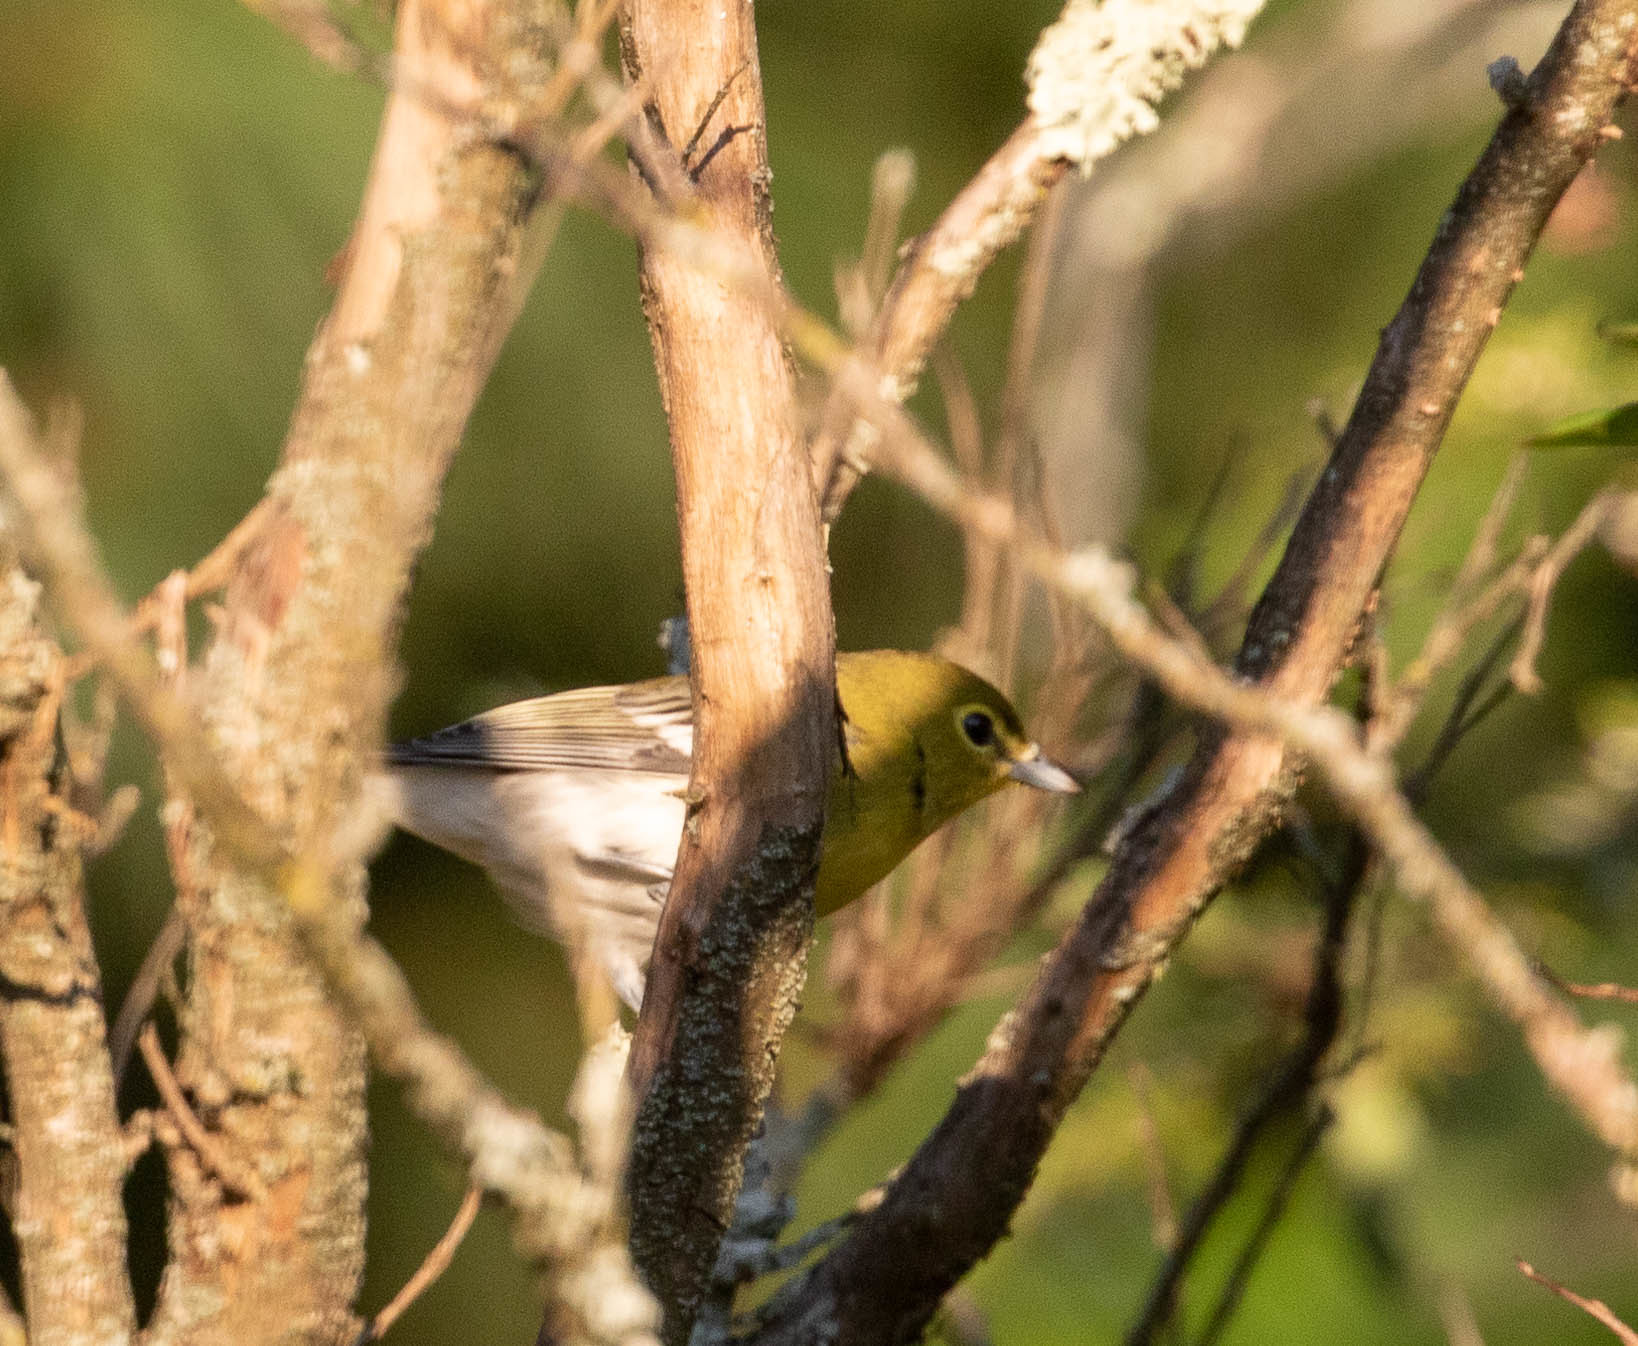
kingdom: Animalia
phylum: Chordata
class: Aves
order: Passeriformes
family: Vireonidae
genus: Vireo
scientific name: Vireo flavifrons
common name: Yellow-throated vireo
